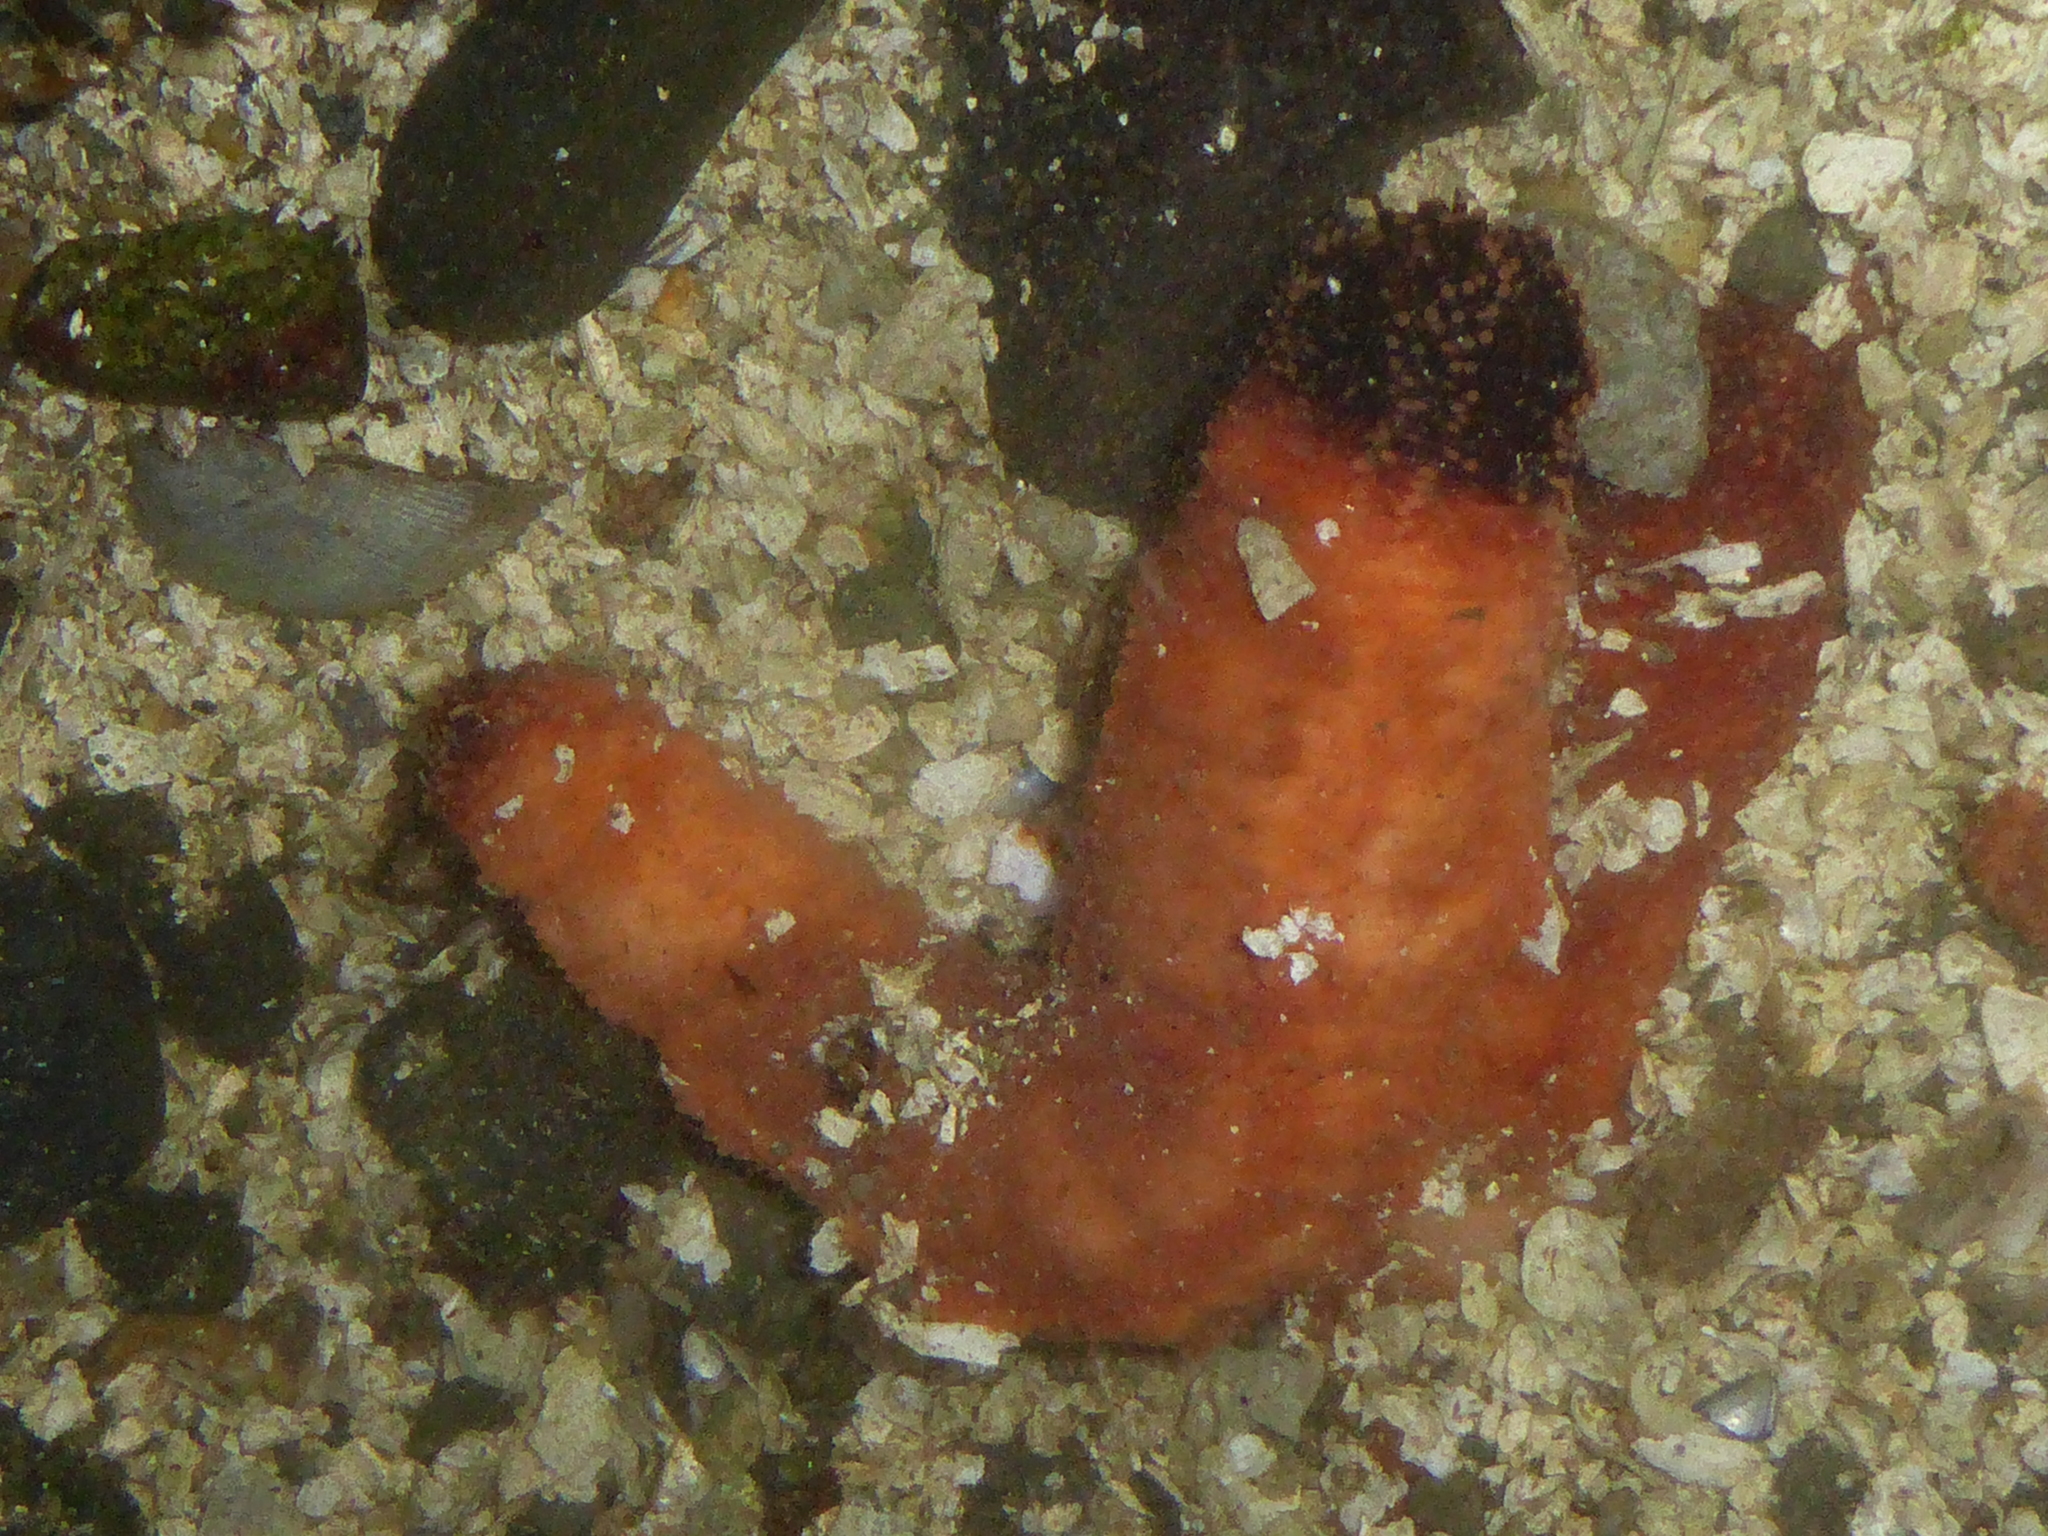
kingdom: Animalia
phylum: Echinodermata
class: Holothuroidea
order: Dendrochirotida
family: Cucumariidae
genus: Cucumaria
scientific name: Cucumaria miniata
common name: Orange sea cucumber
